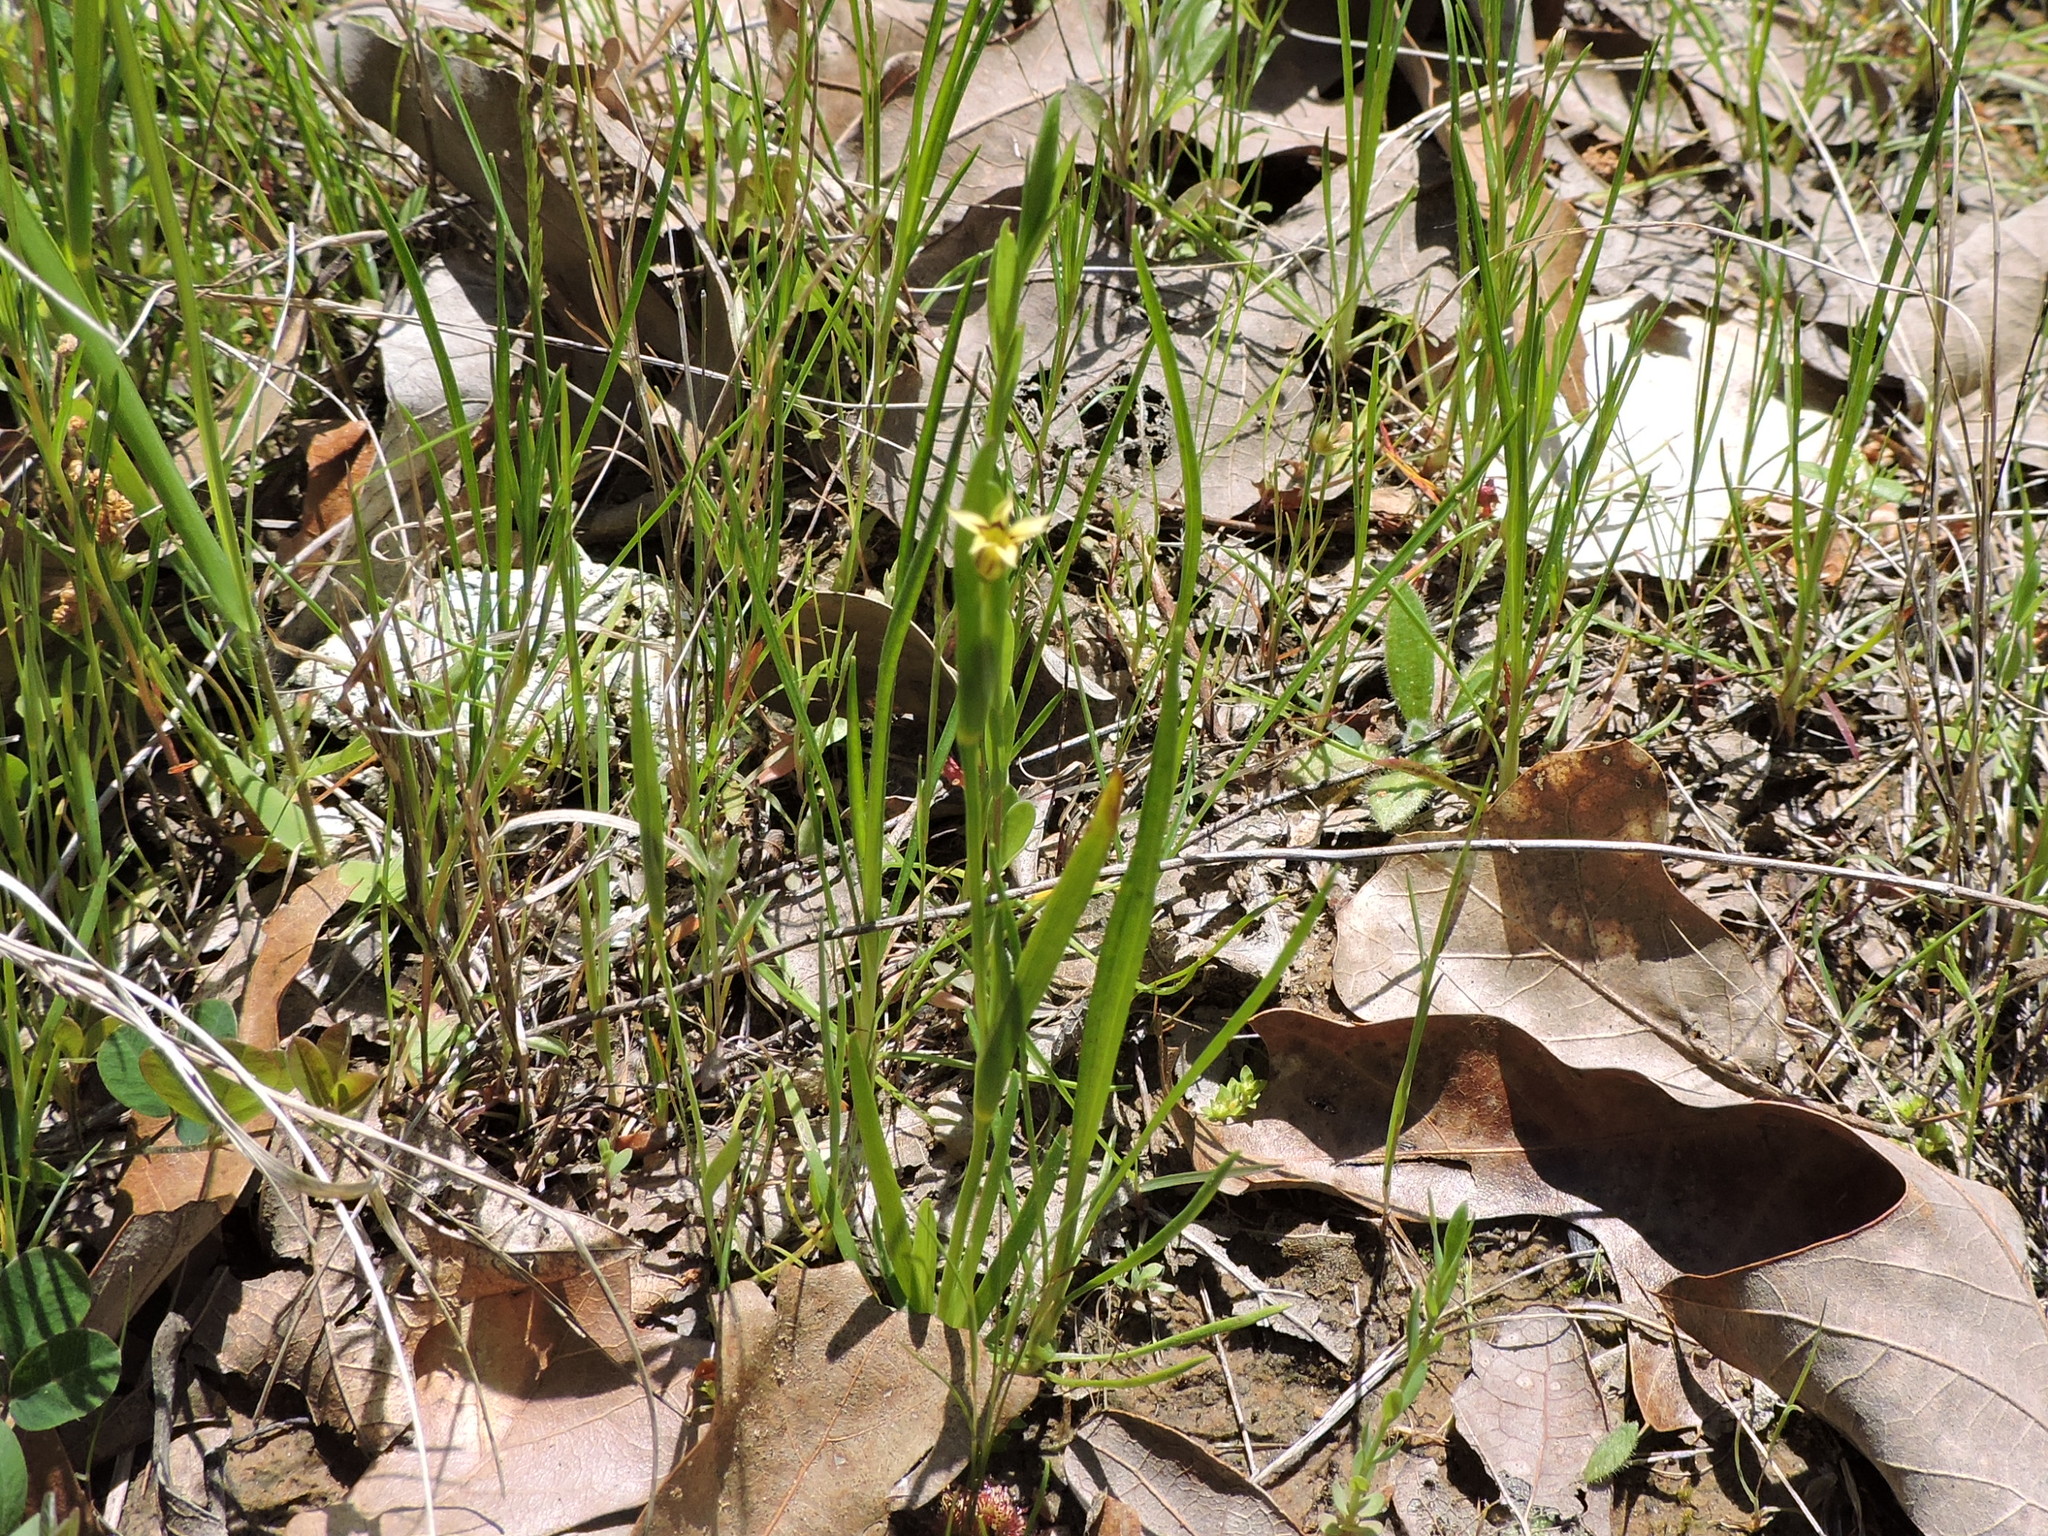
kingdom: Plantae
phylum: Tracheophyta
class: Liliopsida
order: Asparagales
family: Iridaceae
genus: Sisyrinchium
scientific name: Sisyrinchium micranthum
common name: Bermuda pigroot
